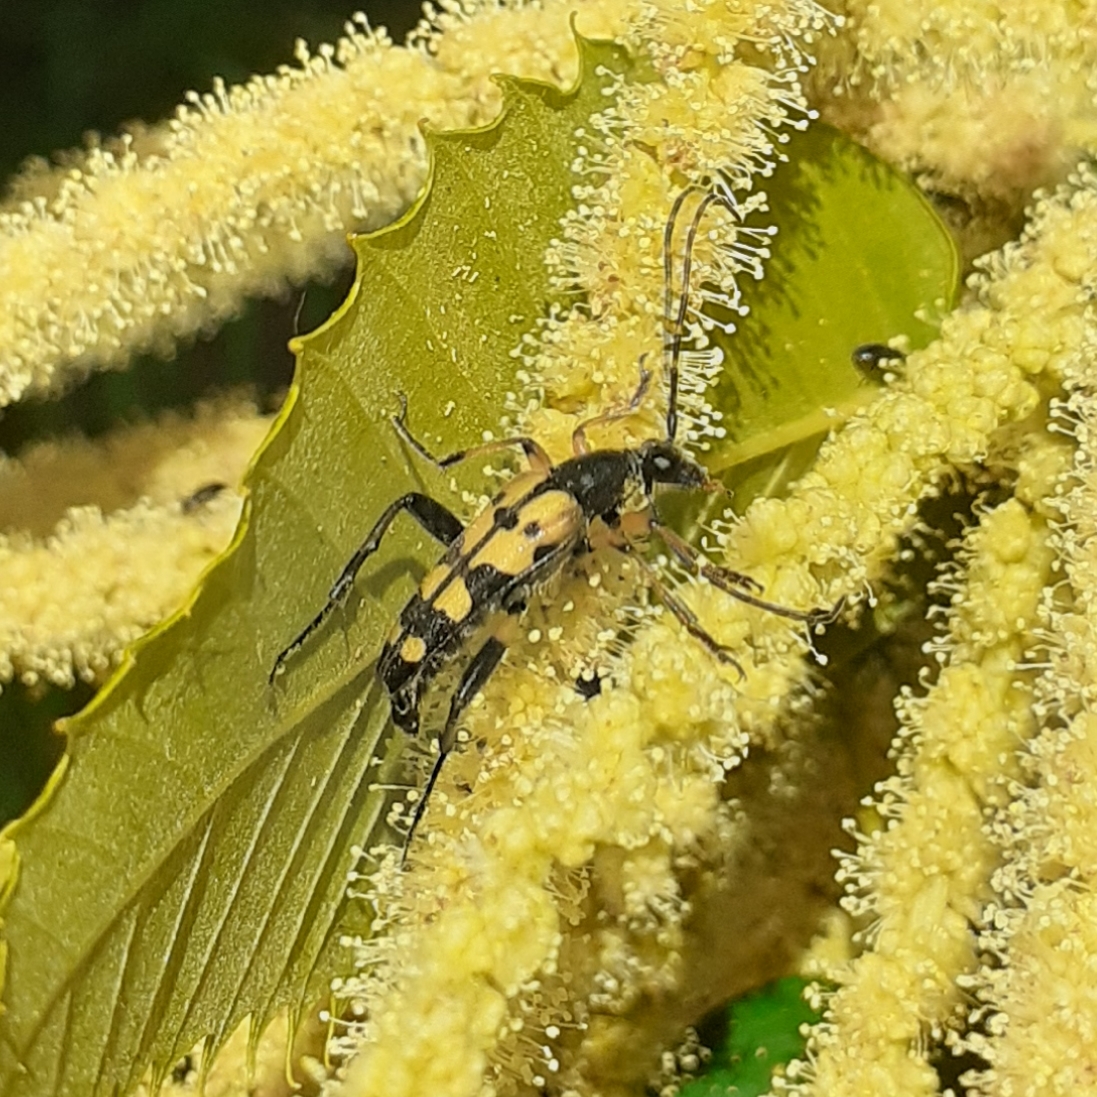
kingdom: Animalia
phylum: Arthropoda
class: Insecta
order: Coleoptera
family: Cerambycidae
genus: Rutpela
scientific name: Rutpela maculata
